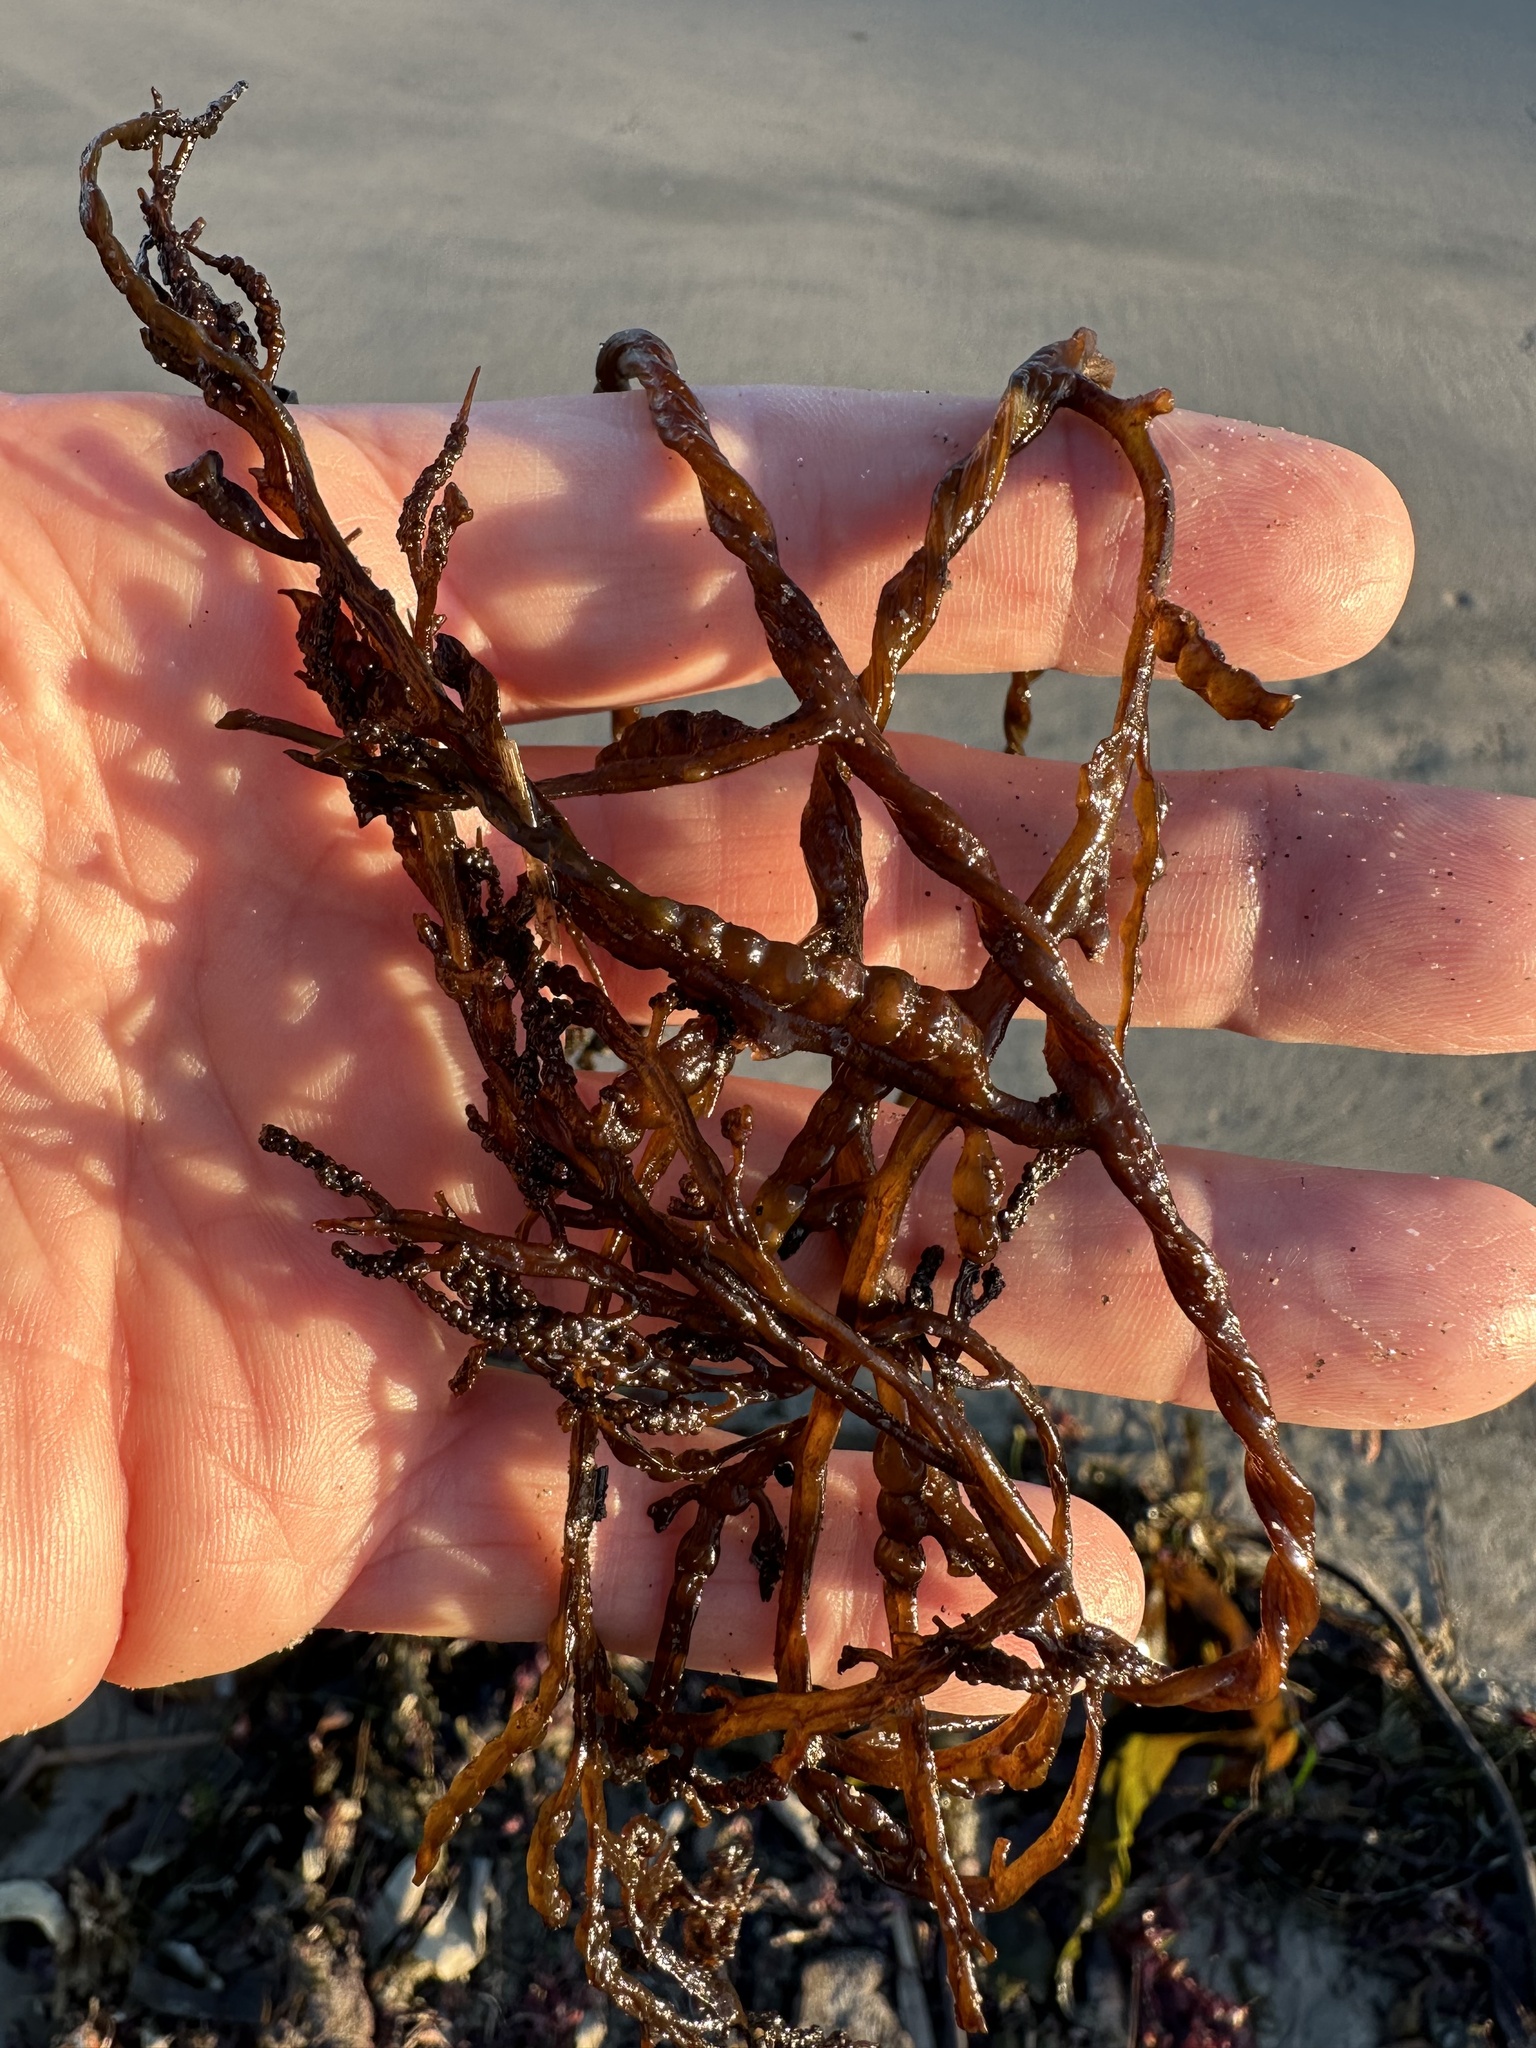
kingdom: Chromista
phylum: Ochrophyta
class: Phaeophyceae
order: Fucales
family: Sargassaceae
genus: Stephanocystis
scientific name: Stephanocystis
